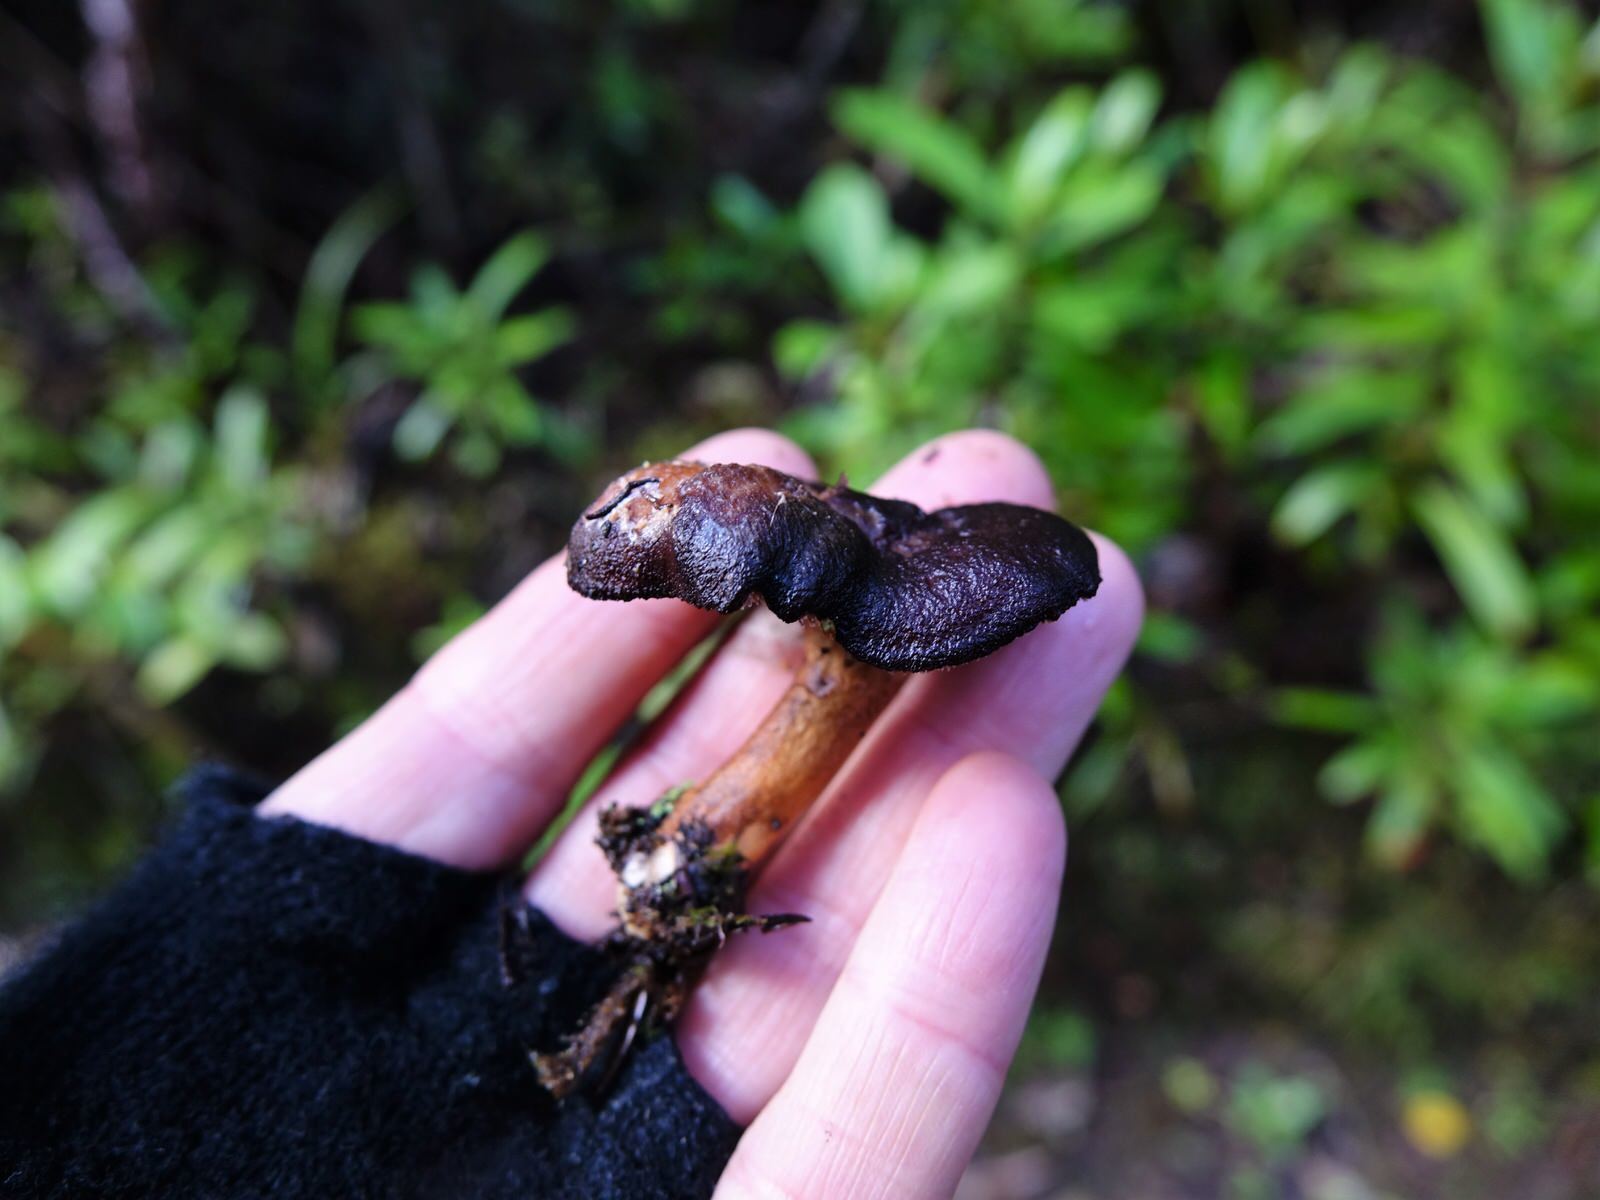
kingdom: Fungi
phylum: Basidiomycota
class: Agaricomycetes
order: Cantharellales
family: Hydnaceae
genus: Hydnum
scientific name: Hydnum
